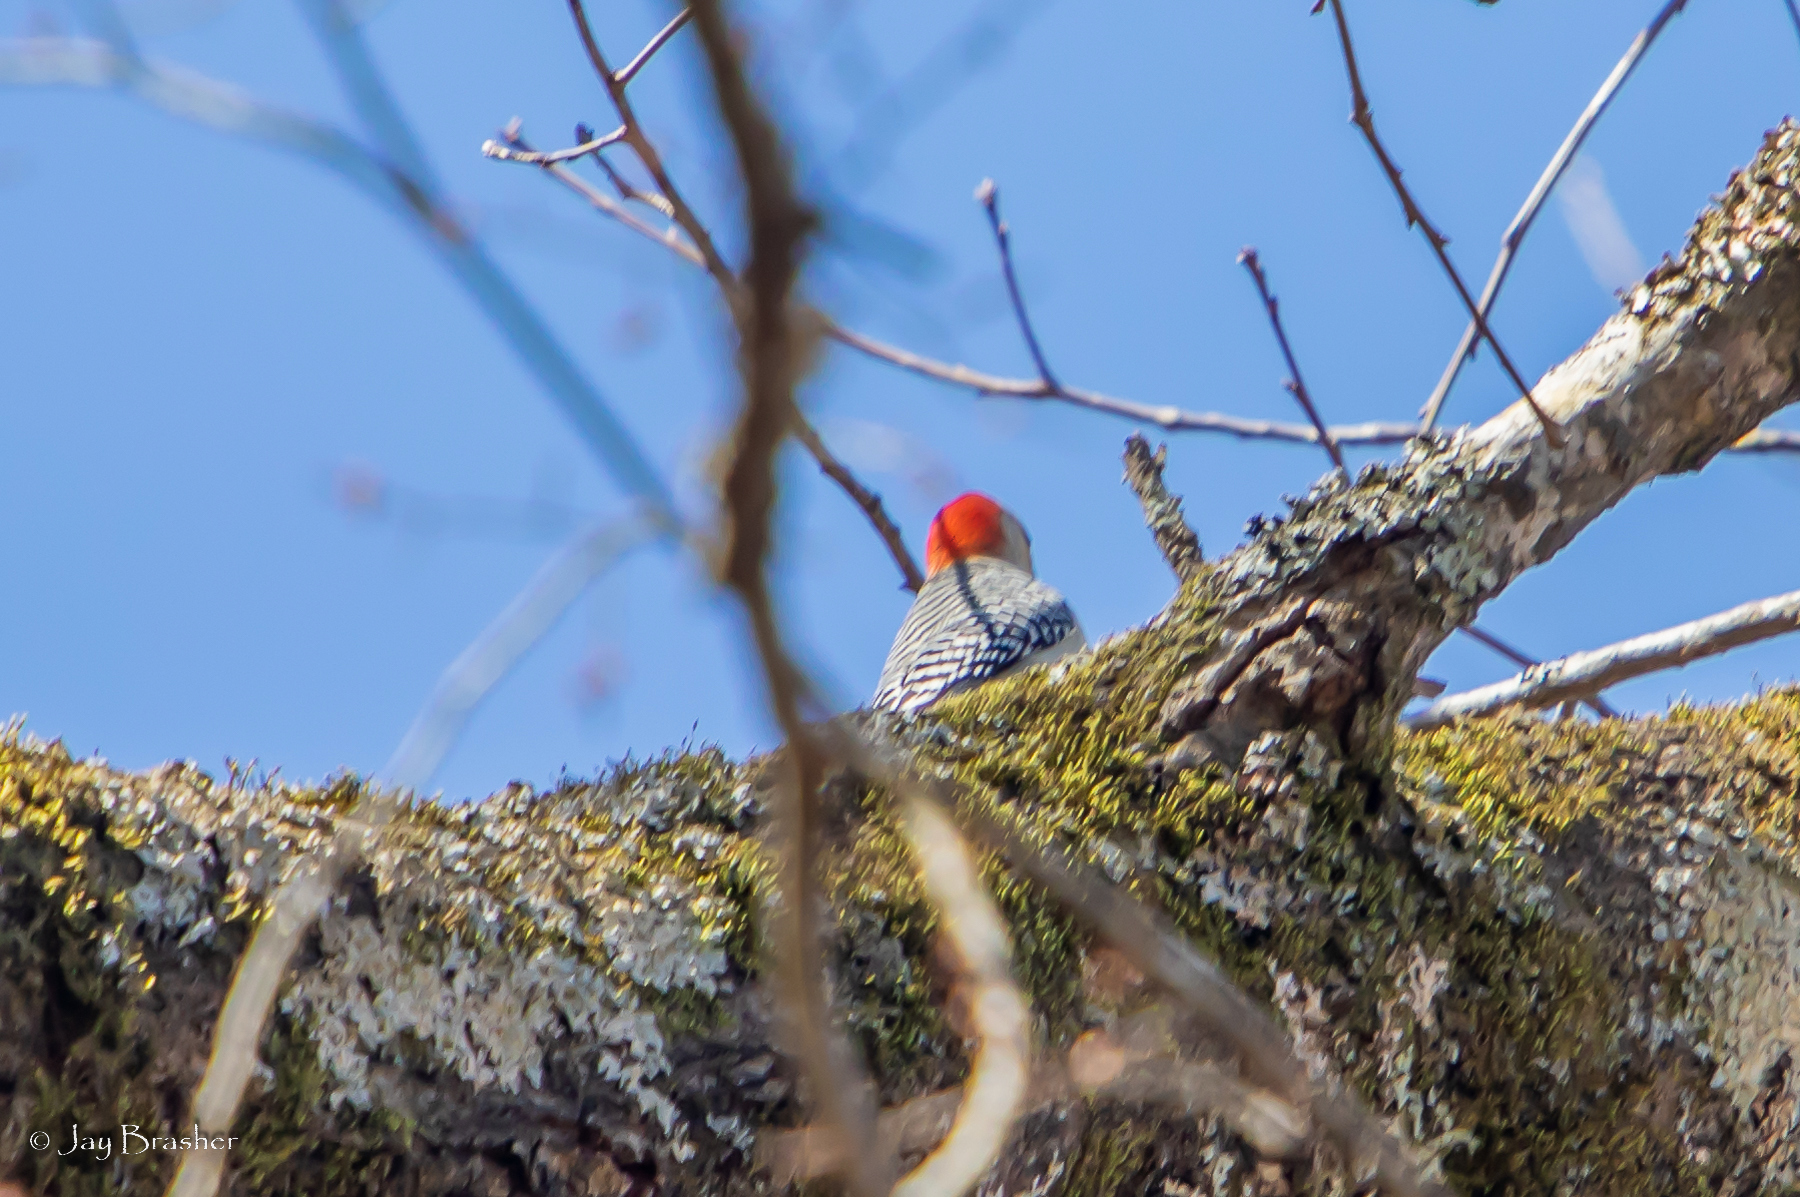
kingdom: Animalia
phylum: Chordata
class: Aves
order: Piciformes
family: Picidae
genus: Melanerpes
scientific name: Melanerpes carolinus
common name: Red-bellied woodpecker
